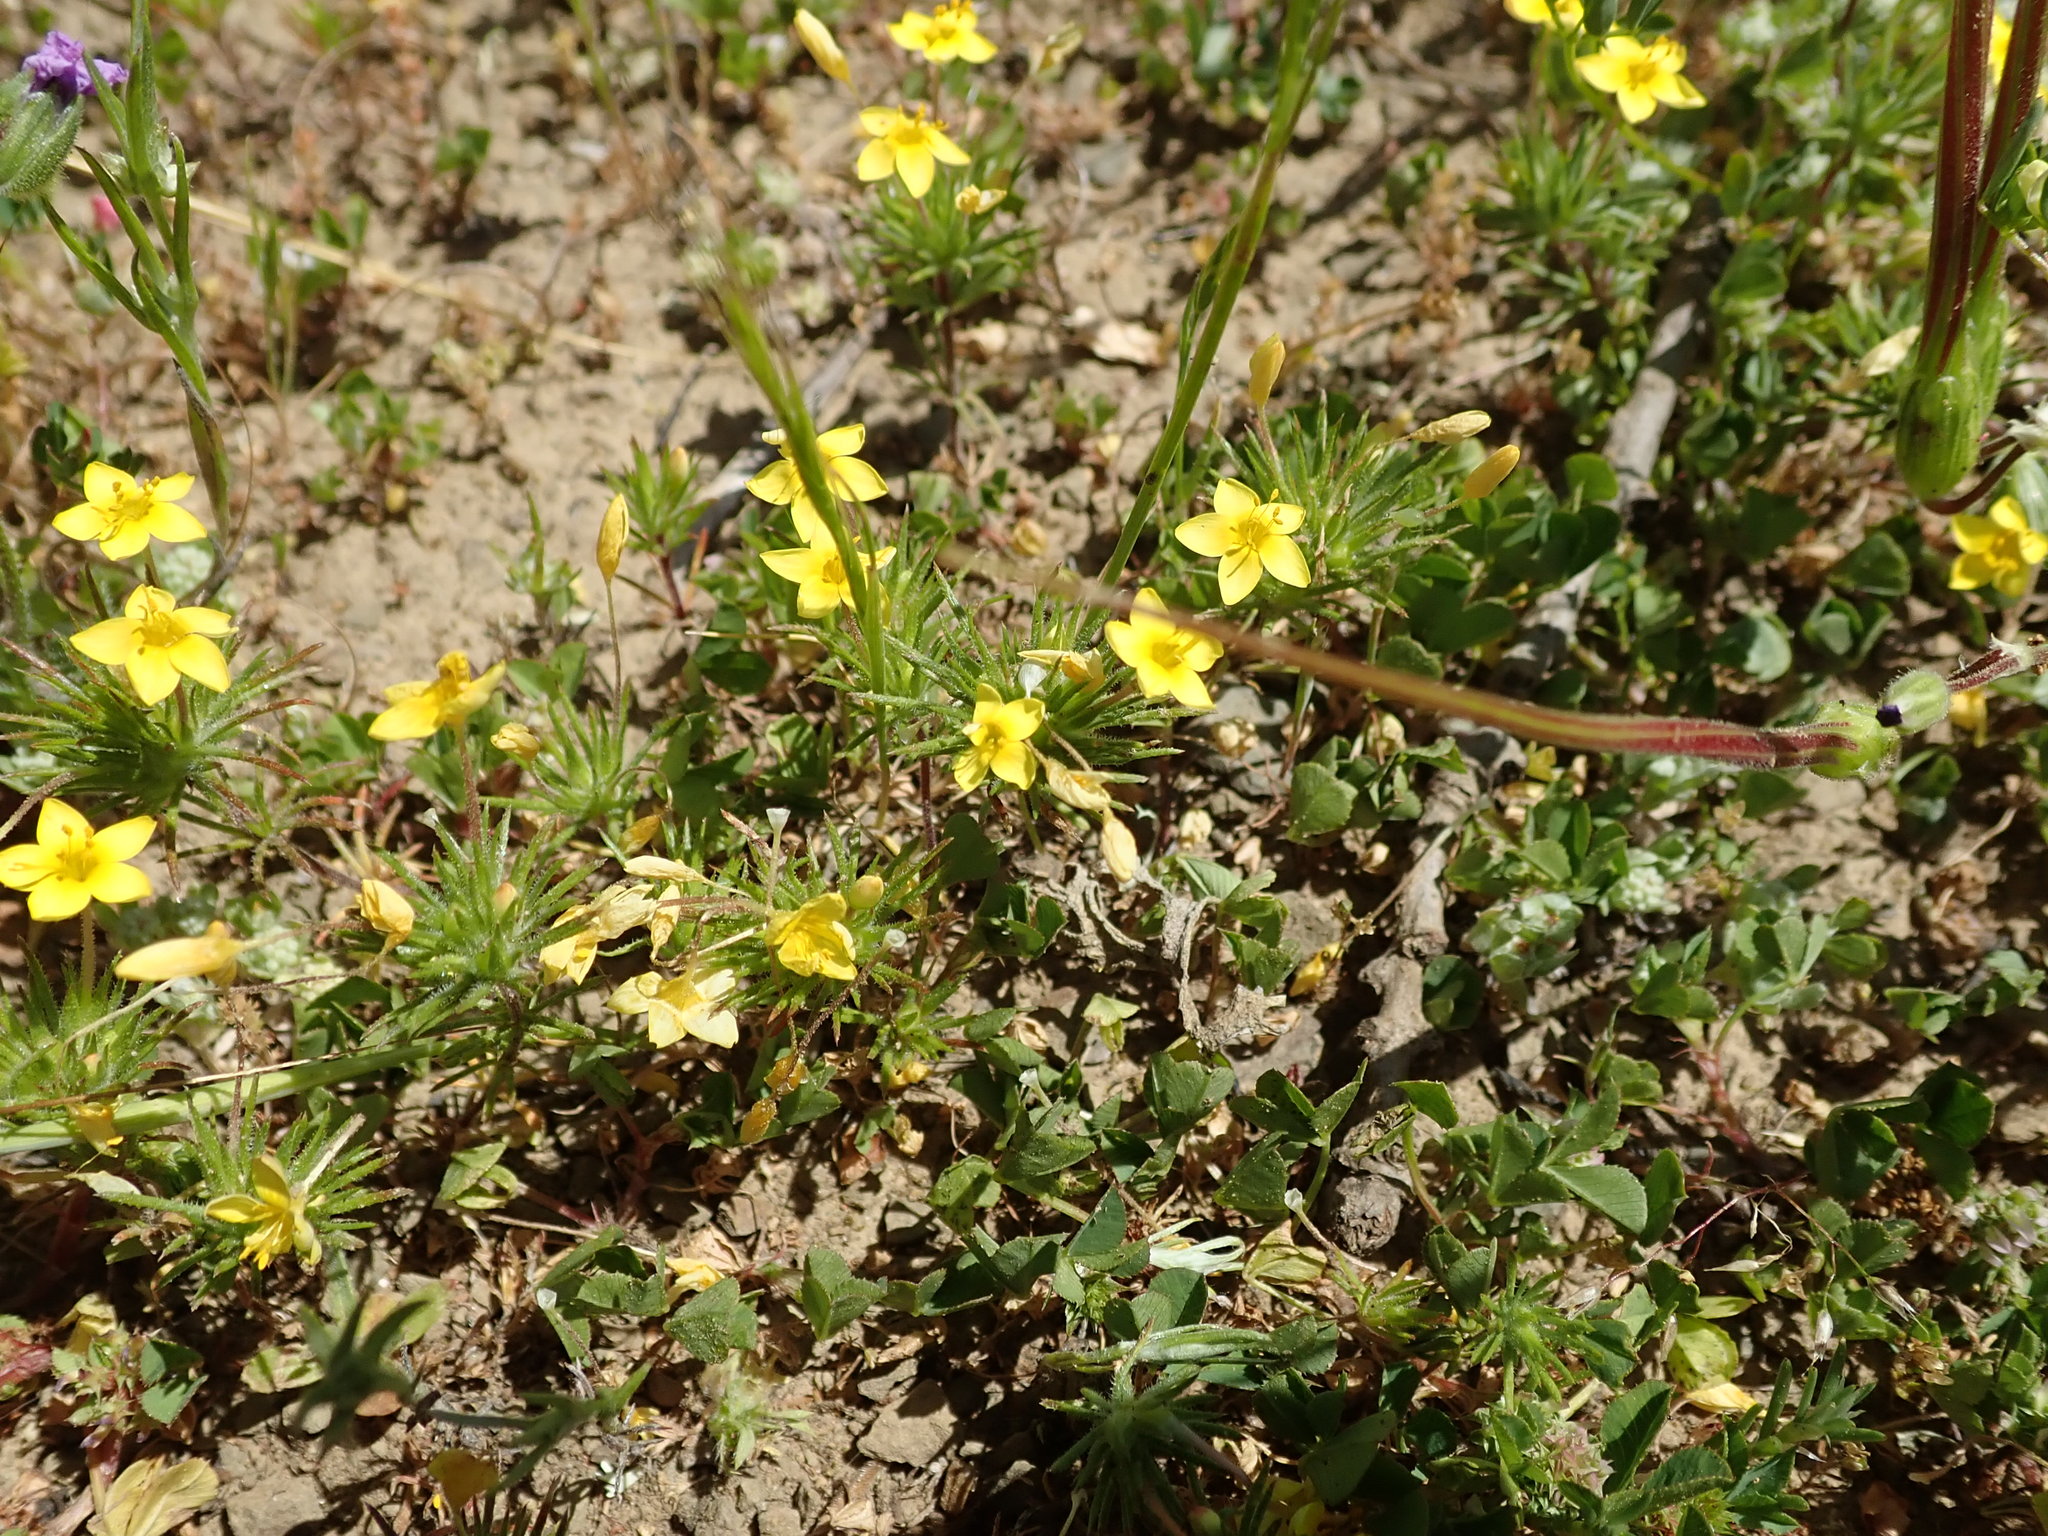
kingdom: Plantae
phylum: Tracheophyta
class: Magnoliopsida
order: Ericales
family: Polemoniaceae
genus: Leptosiphon
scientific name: Leptosiphon acicularis
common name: Bristly linanthus
